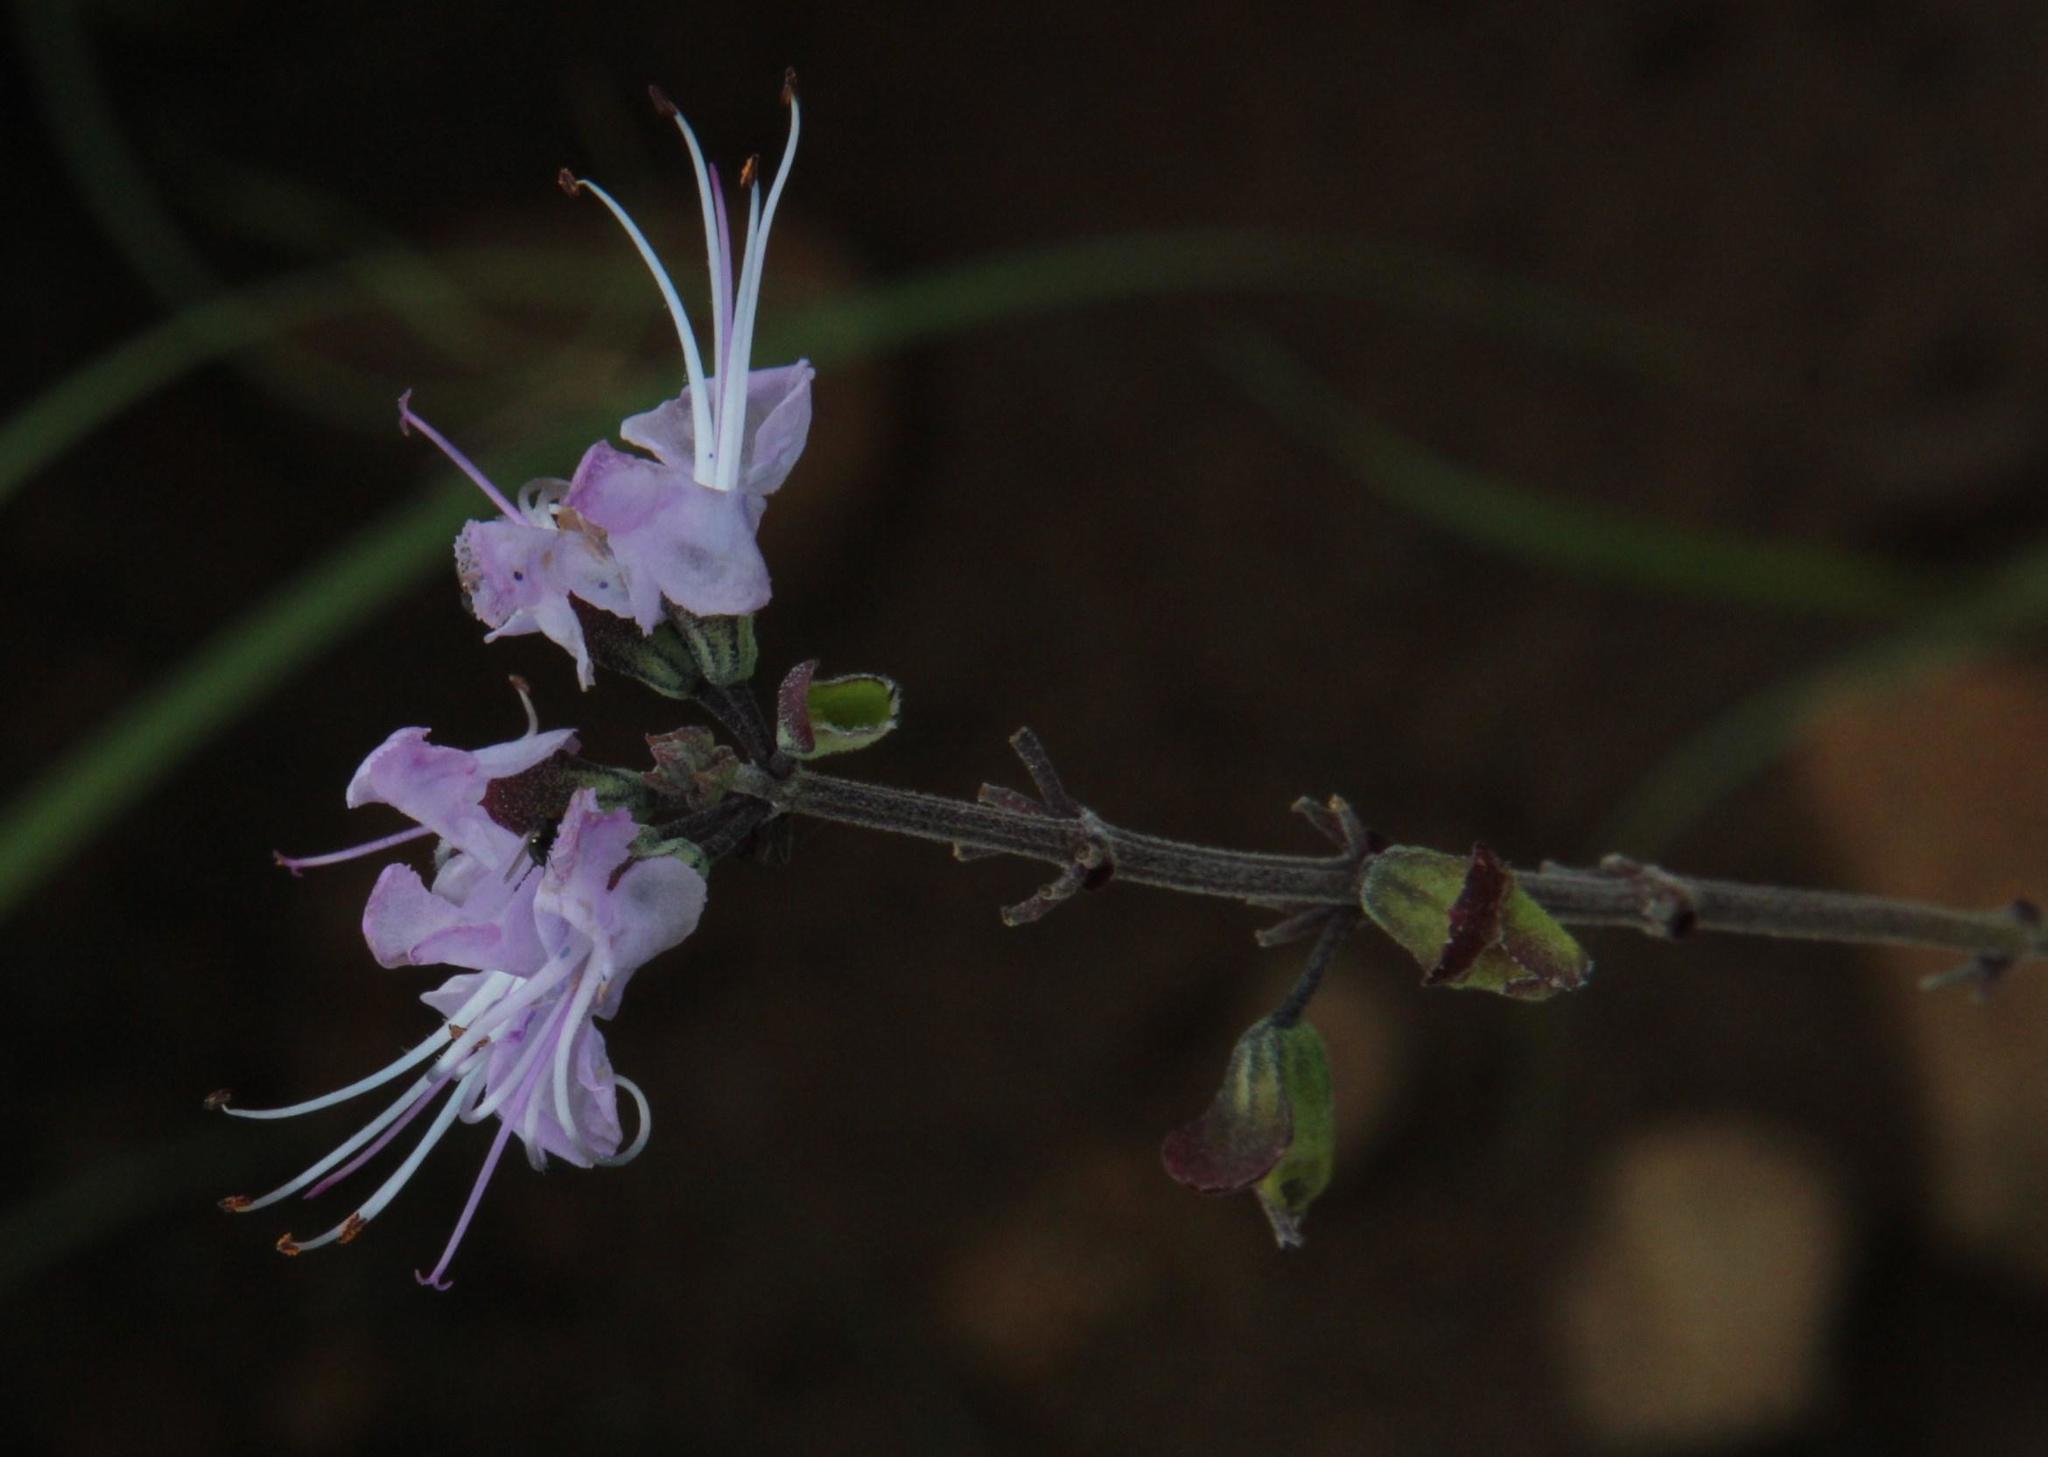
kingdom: Plantae
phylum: Tracheophyta
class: Magnoliopsida
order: Lamiales
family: Lamiaceae
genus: Ocimum
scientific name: Ocimum burchellianum
